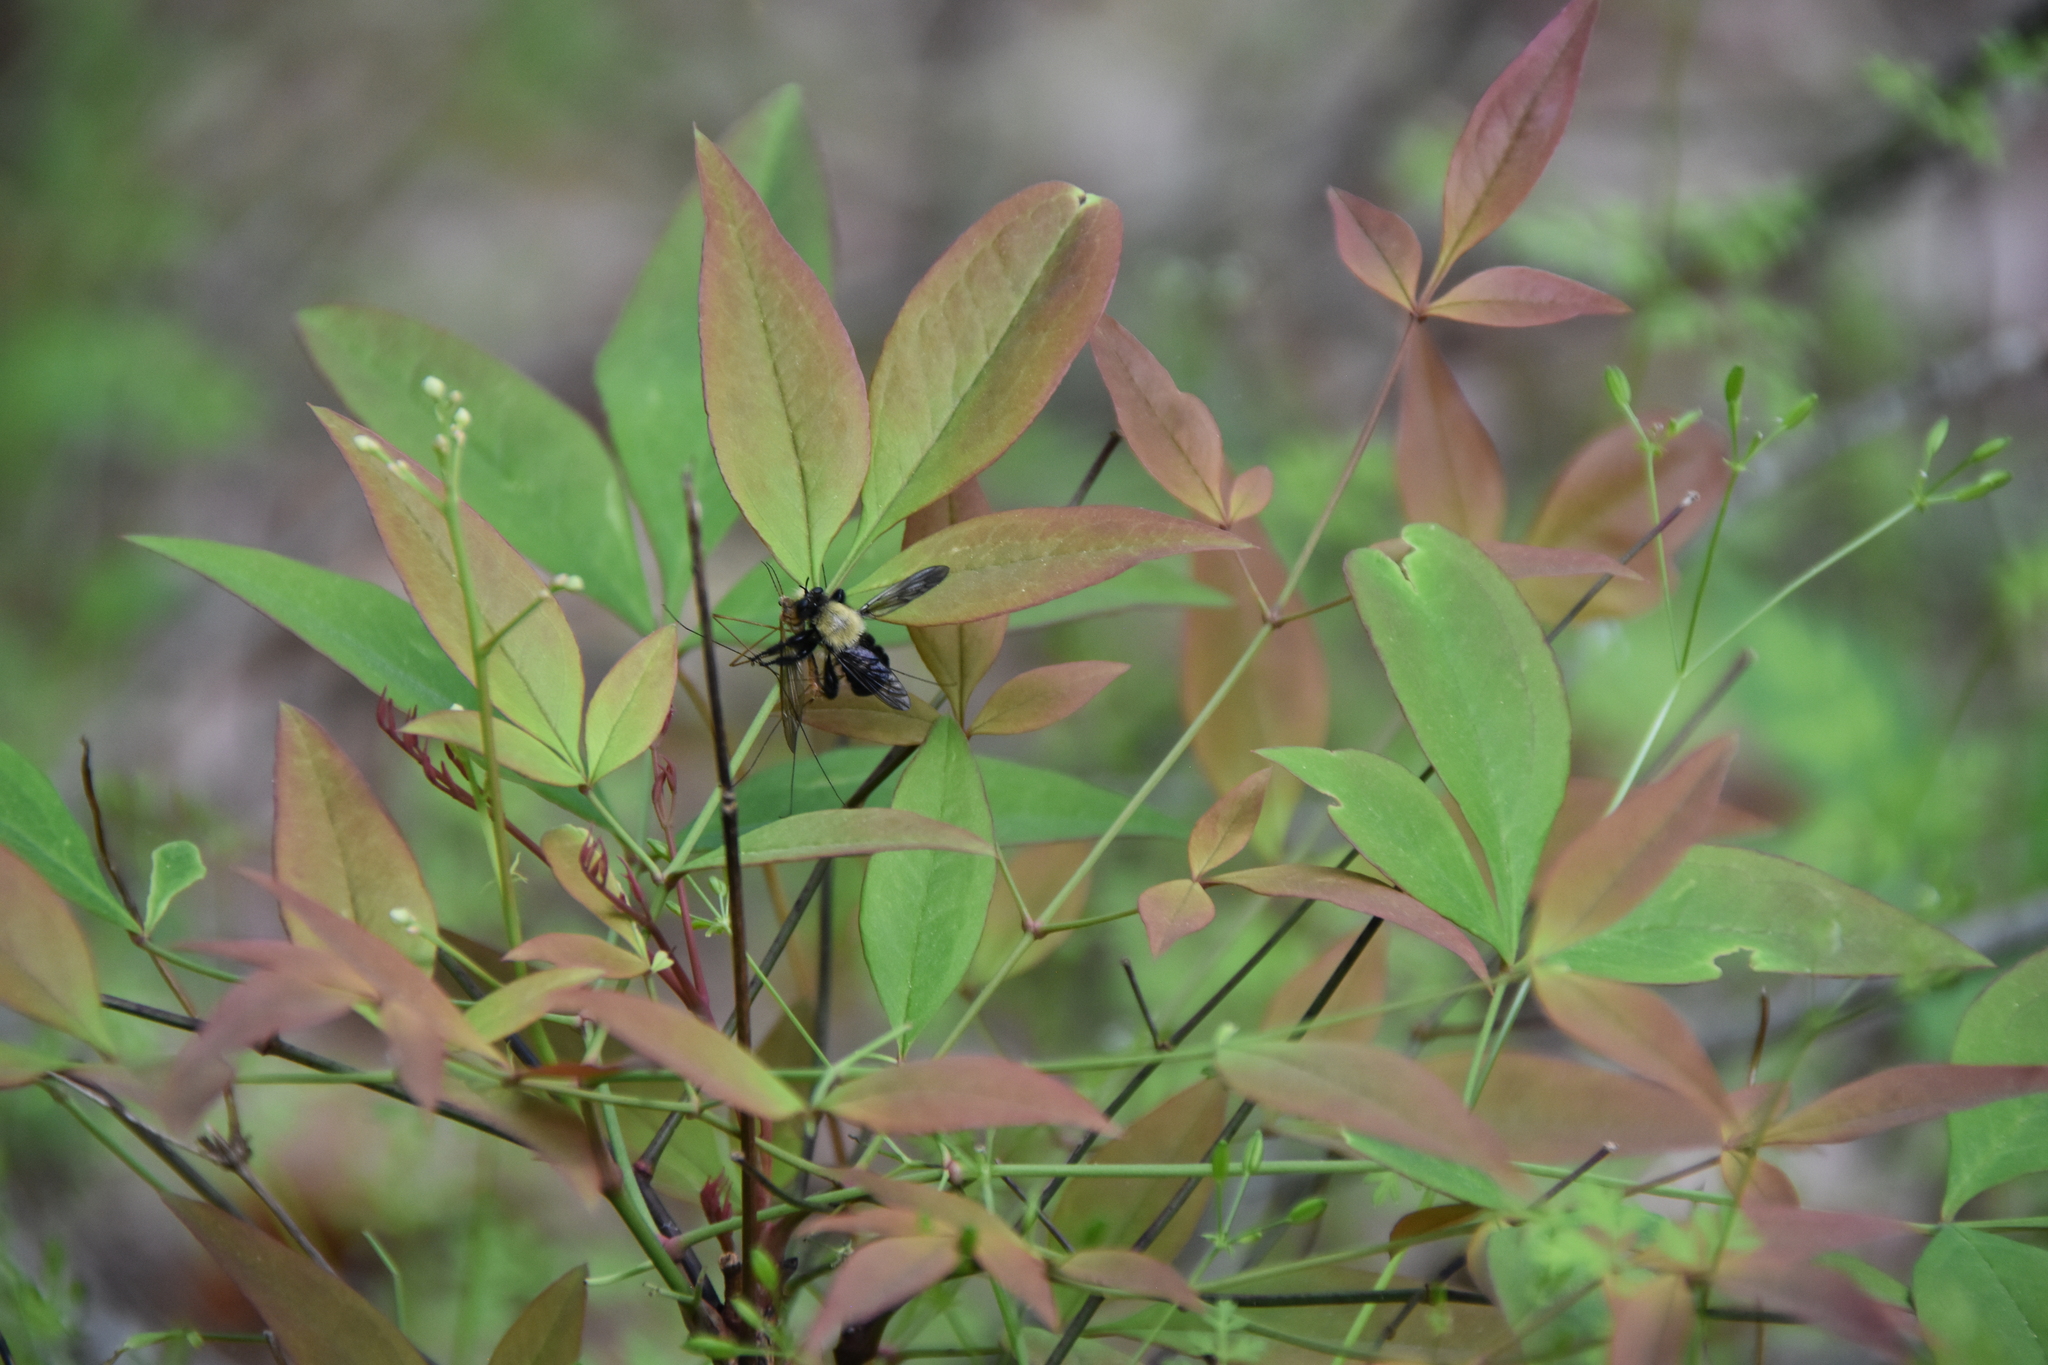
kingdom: Animalia
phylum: Arthropoda
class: Insecta
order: Diptera
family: Asilidae
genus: Laphria
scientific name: Laphria flavicollis
